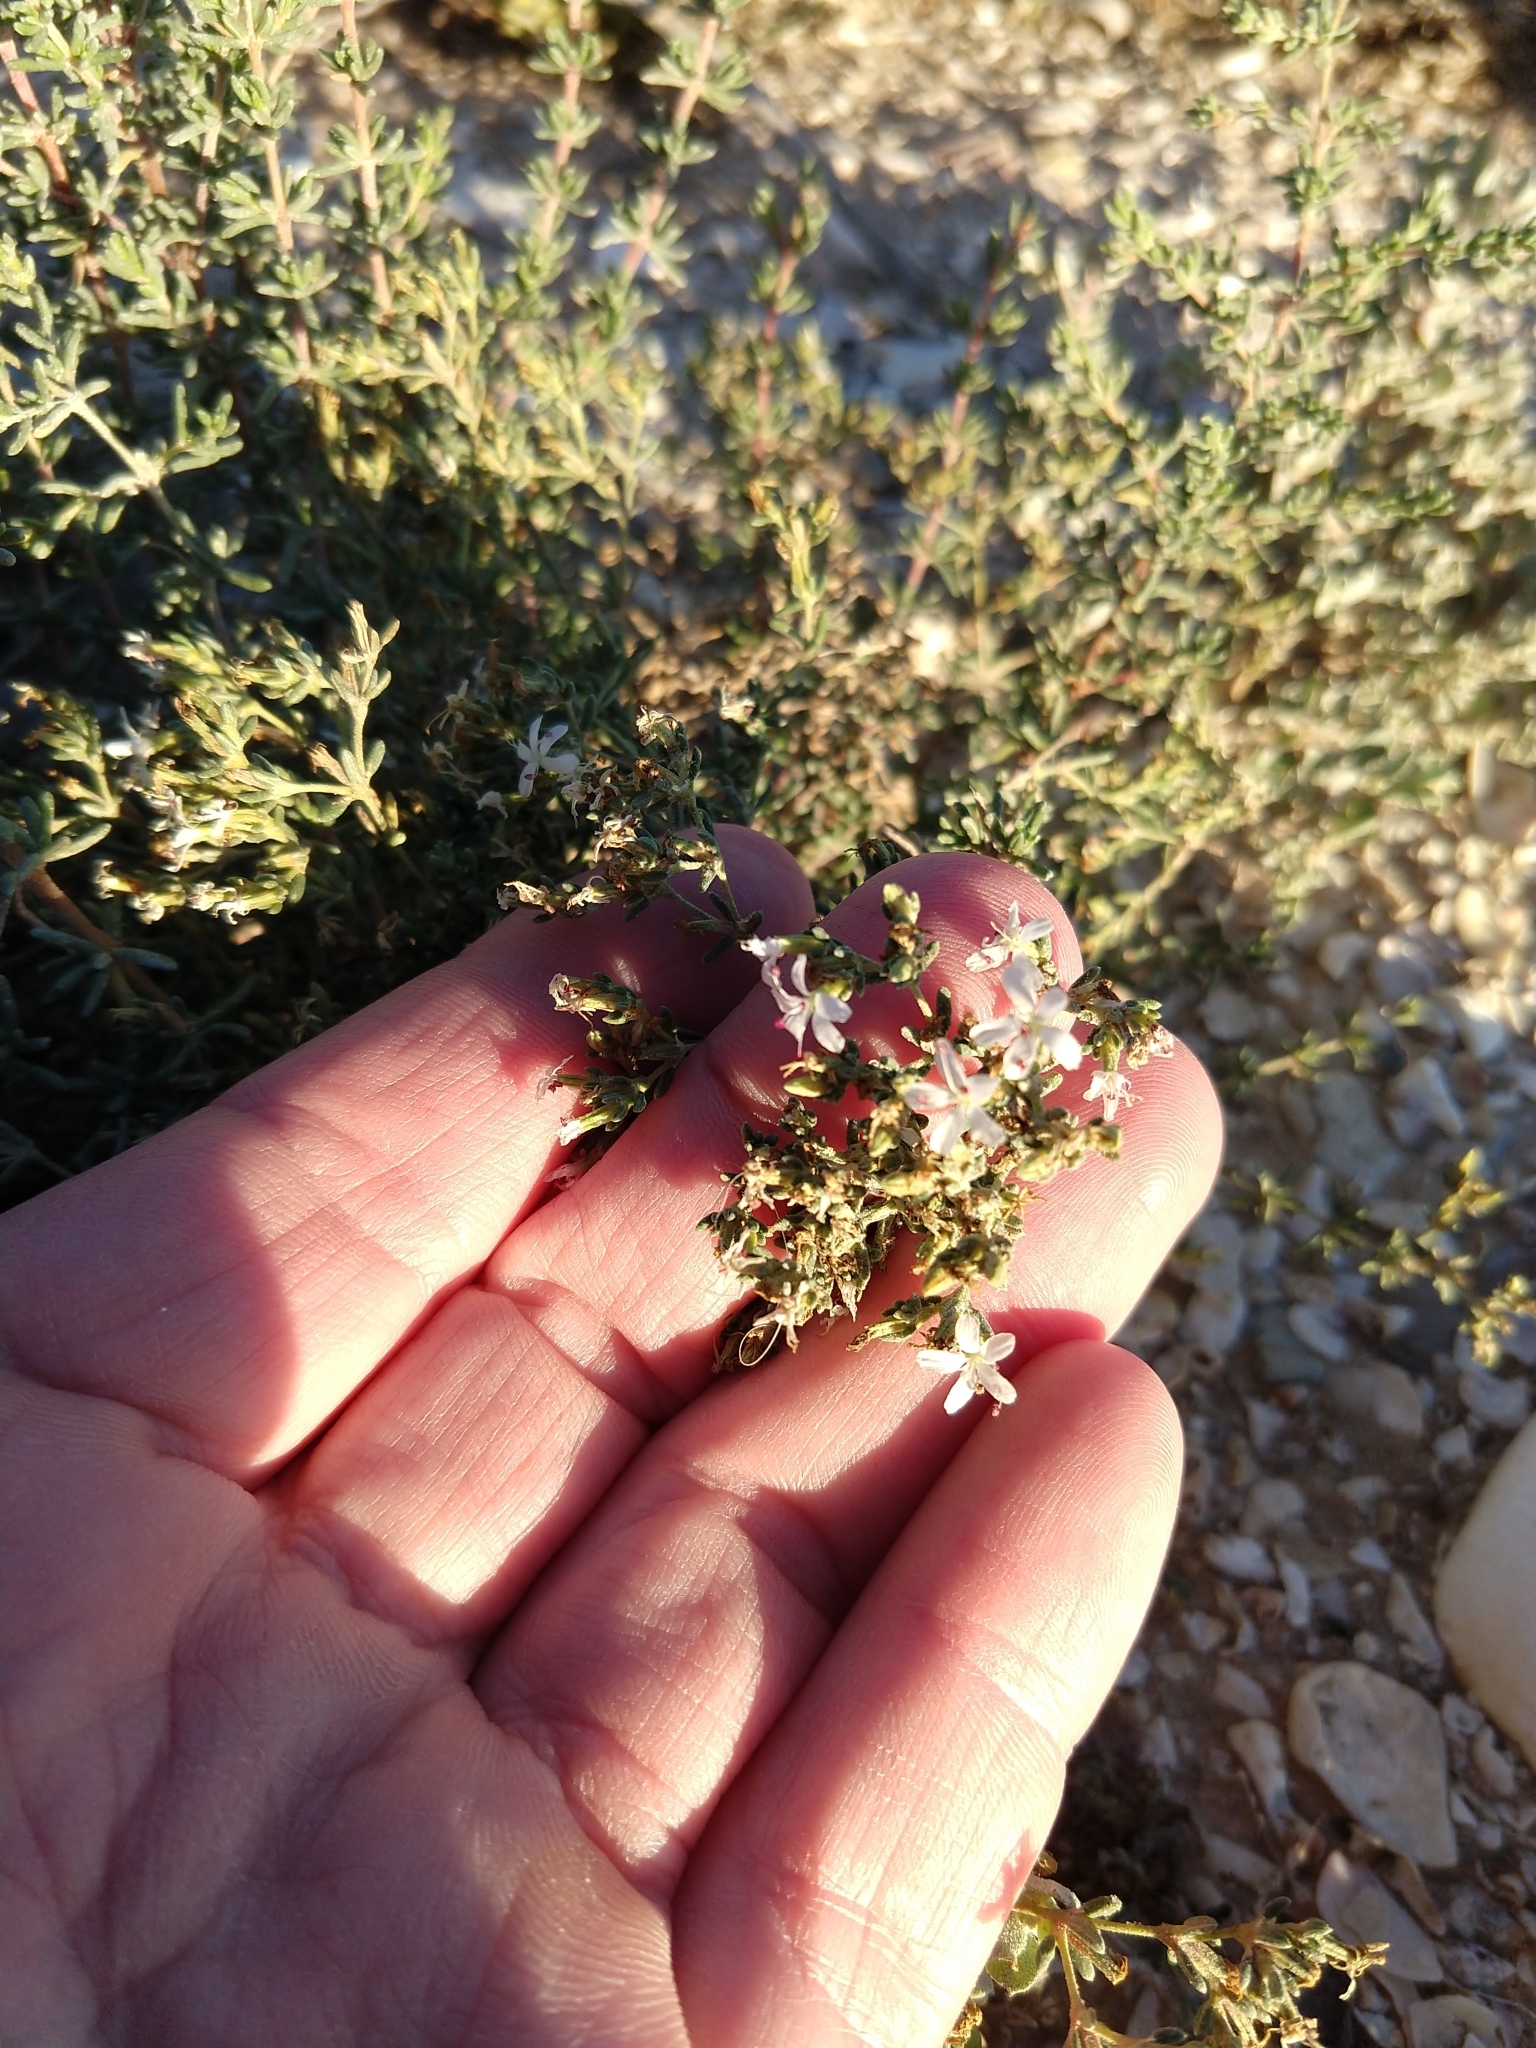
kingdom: Plantae
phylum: Tracheophyta
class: Magnoliopsida
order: Caryophyllales
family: Frankeniaceae
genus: Frankenia
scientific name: Frankenia palmeri
